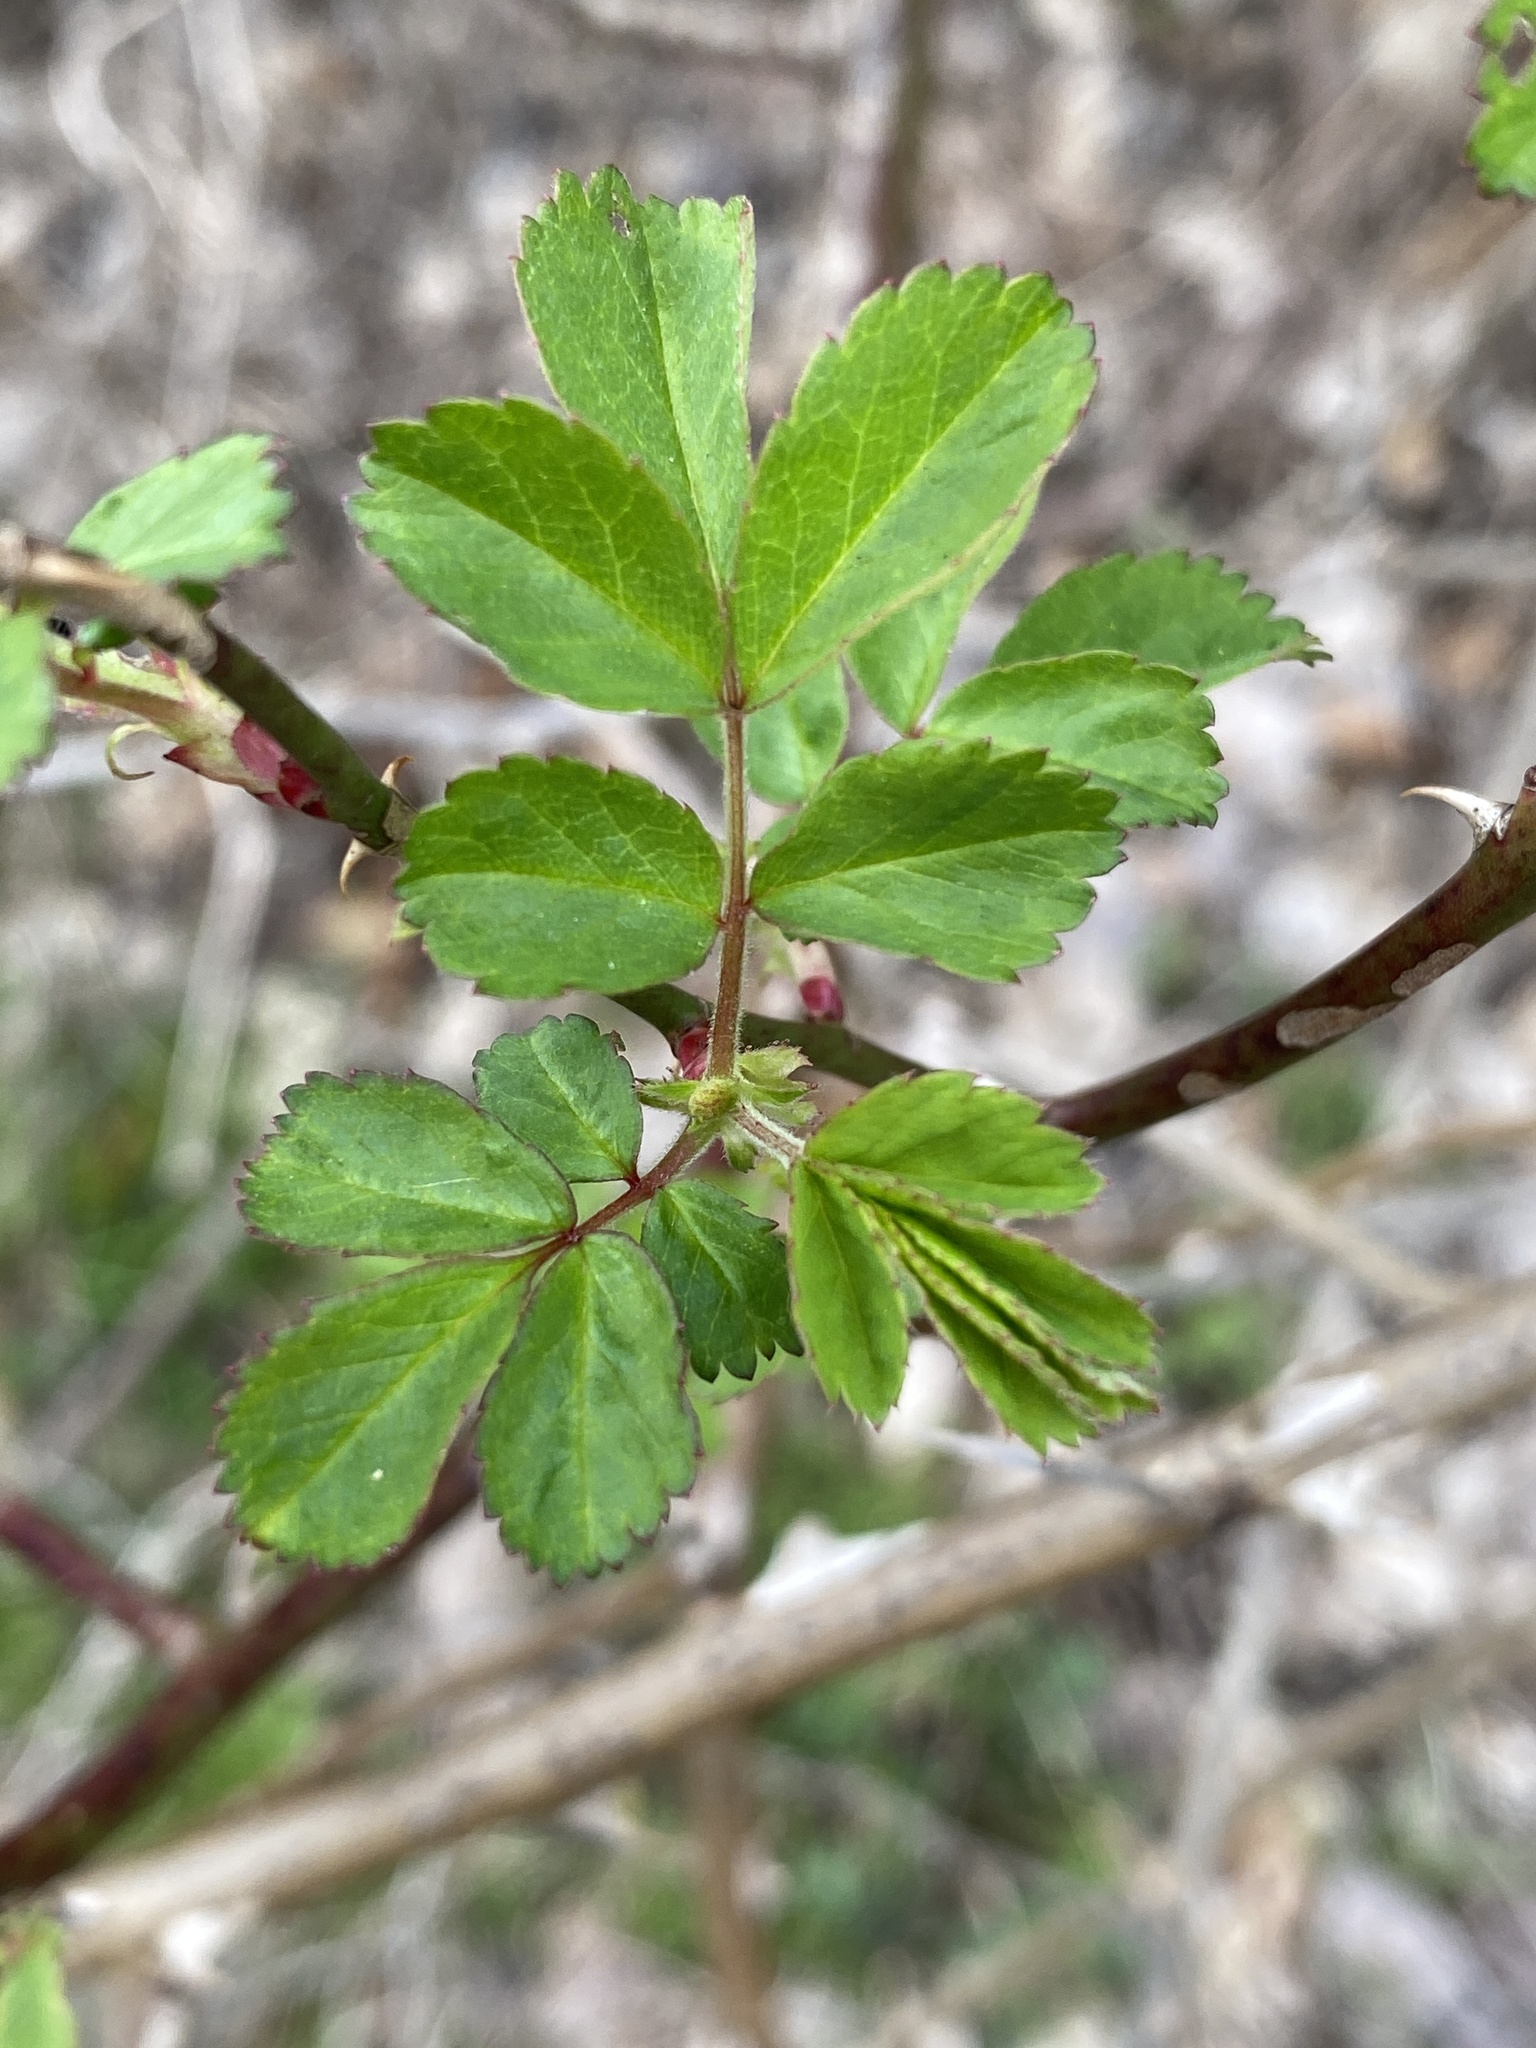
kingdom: Plantae
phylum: Tracheophyta
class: Magnoliopsida
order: Rosales
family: Rosaceae
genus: Rosa
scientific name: Rosa multiflora
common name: Multiflora rose
